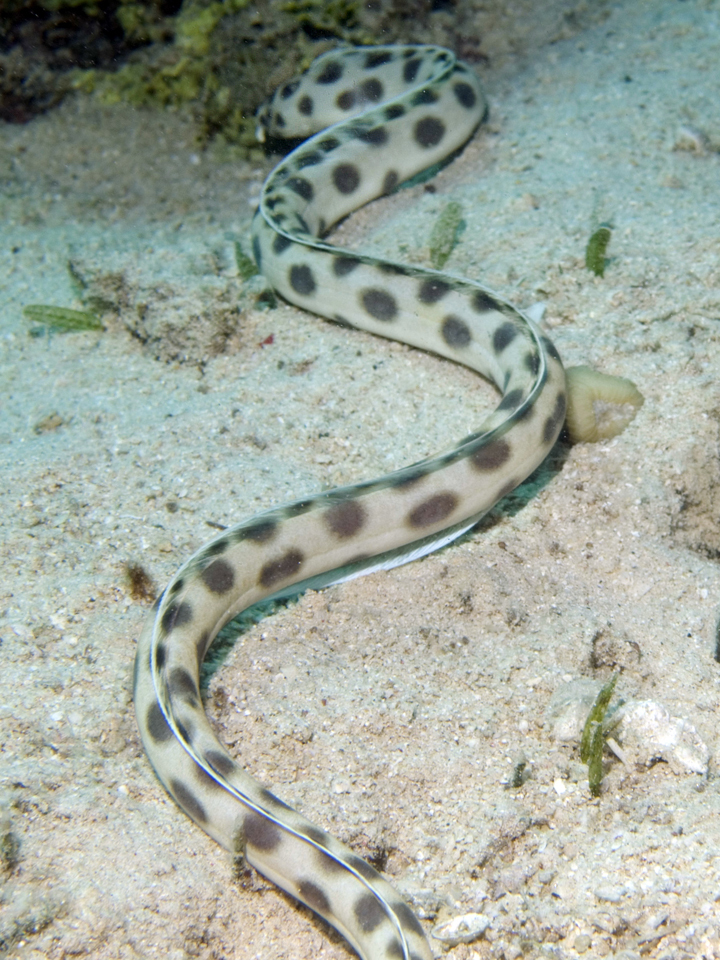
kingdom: Animalia
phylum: Chordata
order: Anguilliformes
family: Ophichthidae
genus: Myrichthys
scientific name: Myrichthys maculosus
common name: Spotted snake eel
